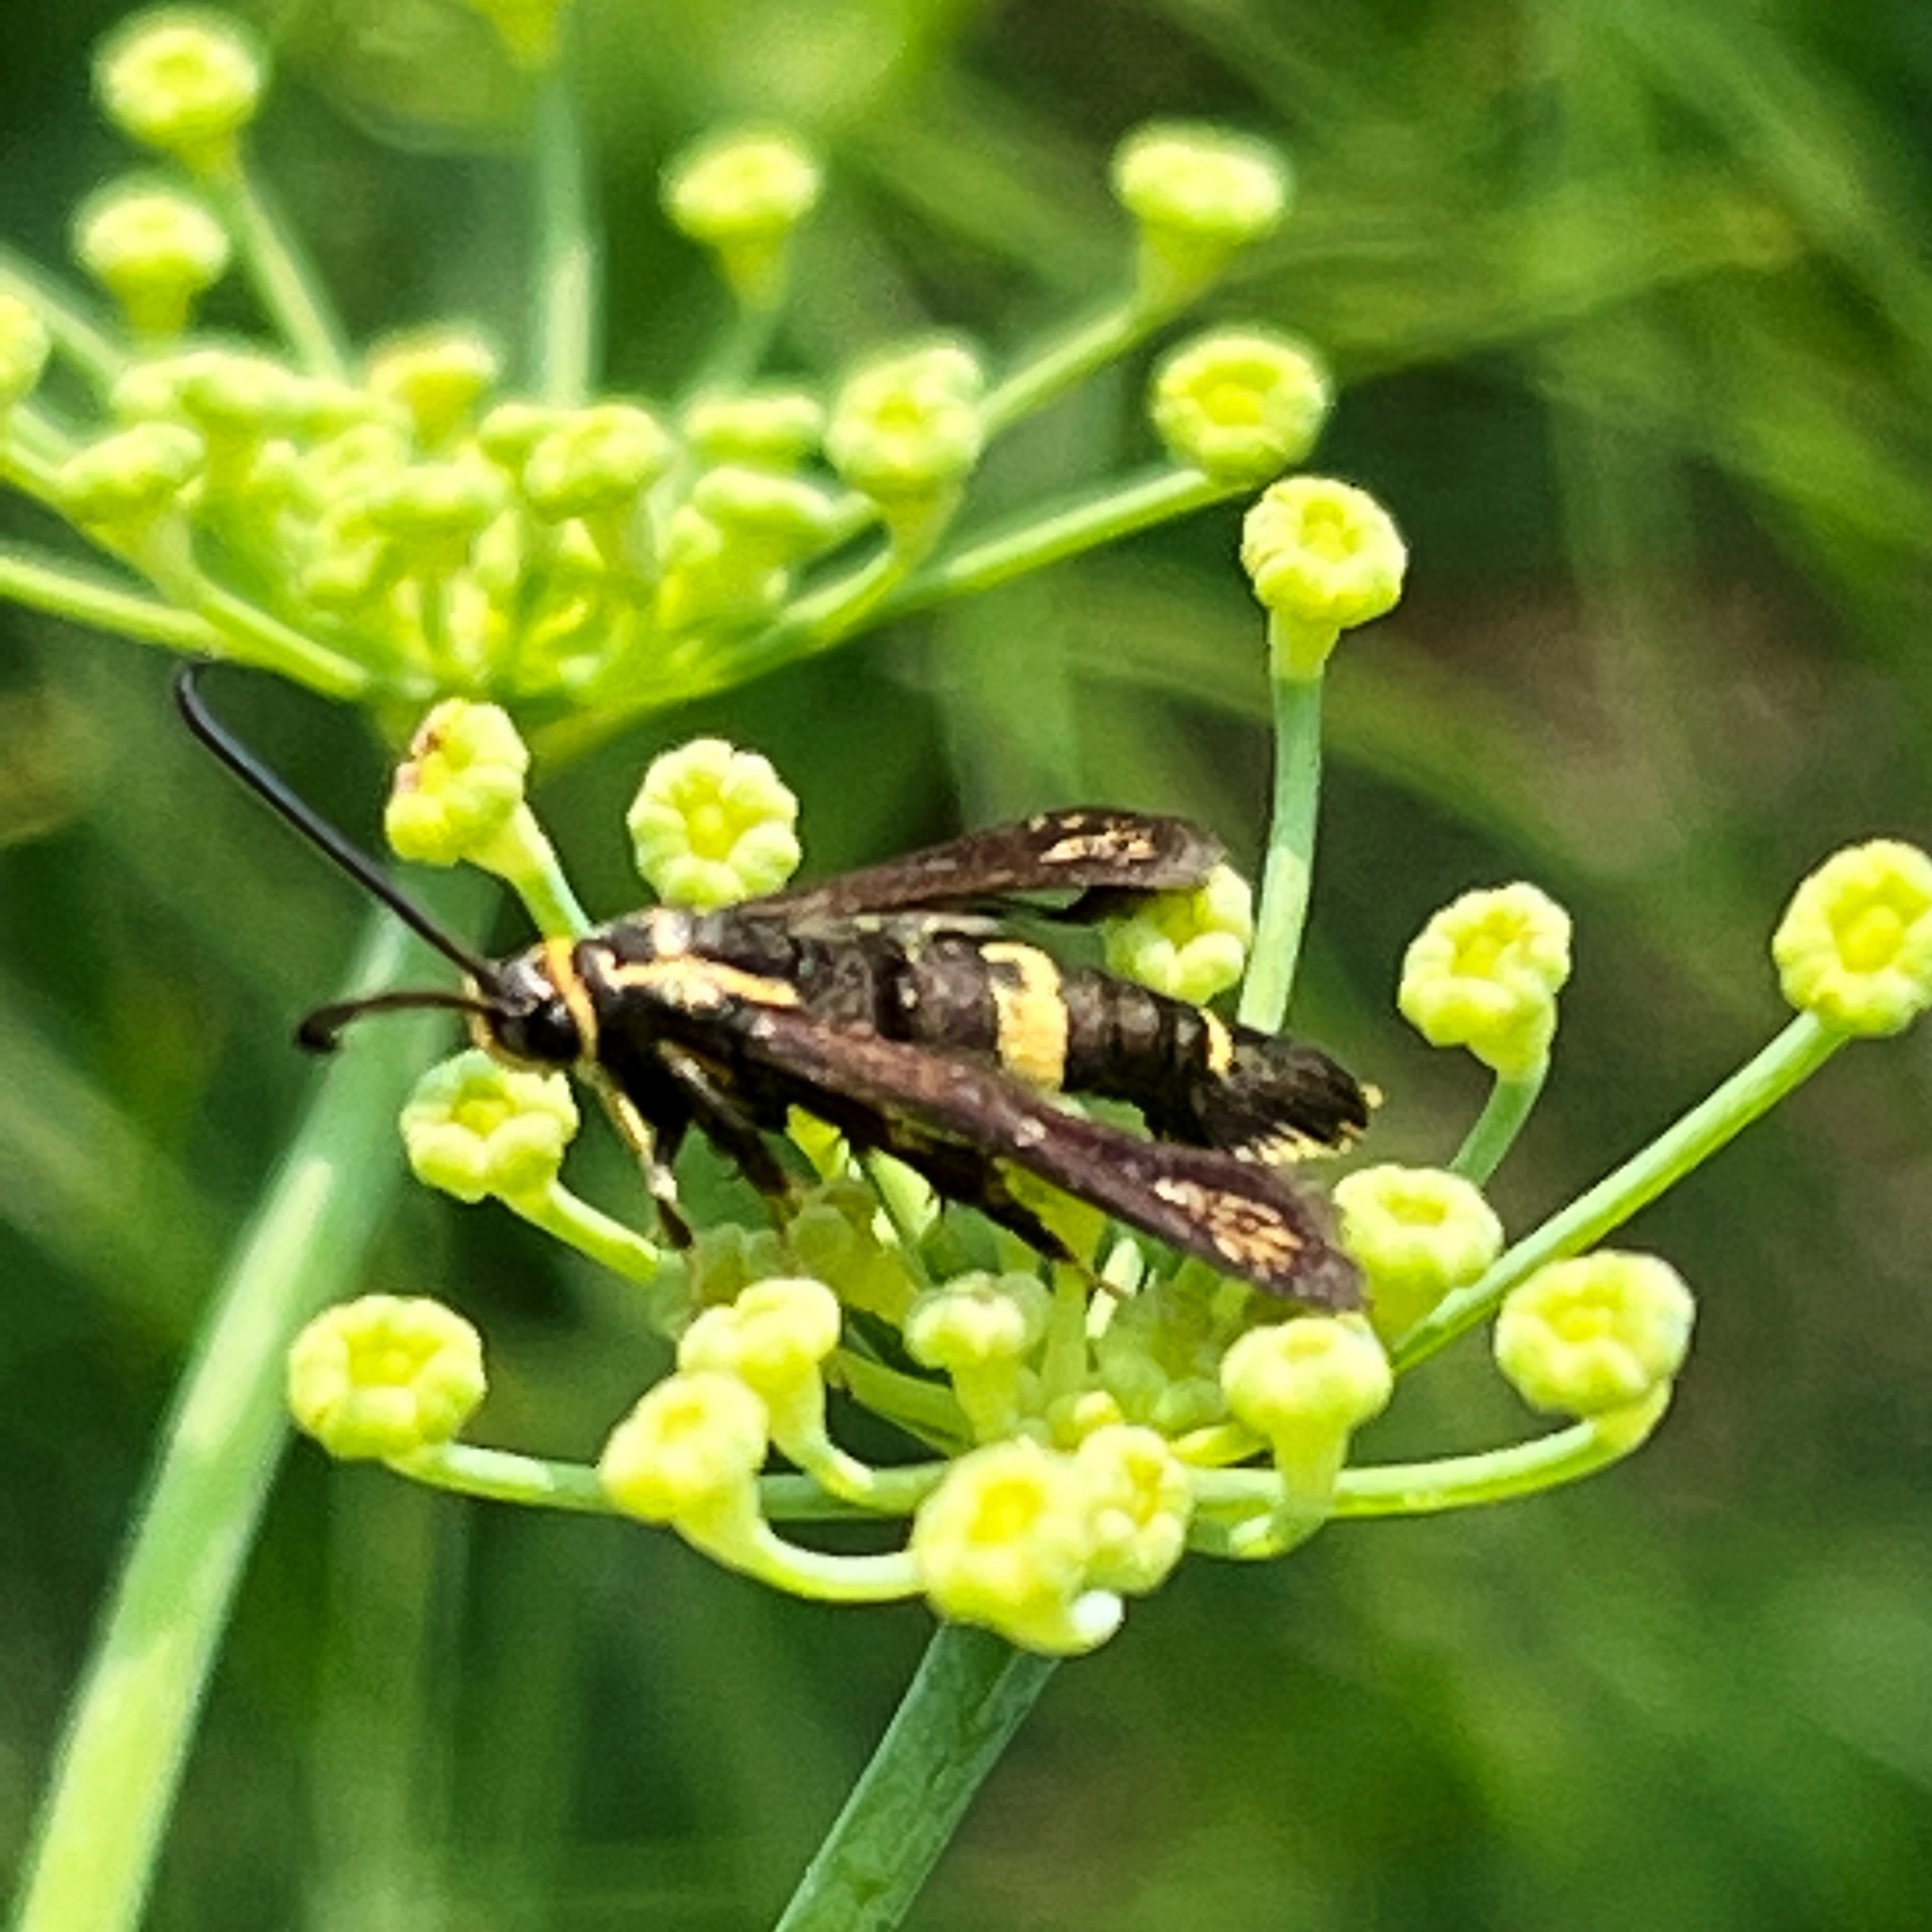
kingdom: Animalia
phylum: Arthropoda
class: Insecta
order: Lepidoptera
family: Sesiidae
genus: Carmenta
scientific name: Carmenta pyralidiformis
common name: Boneset borer moth
